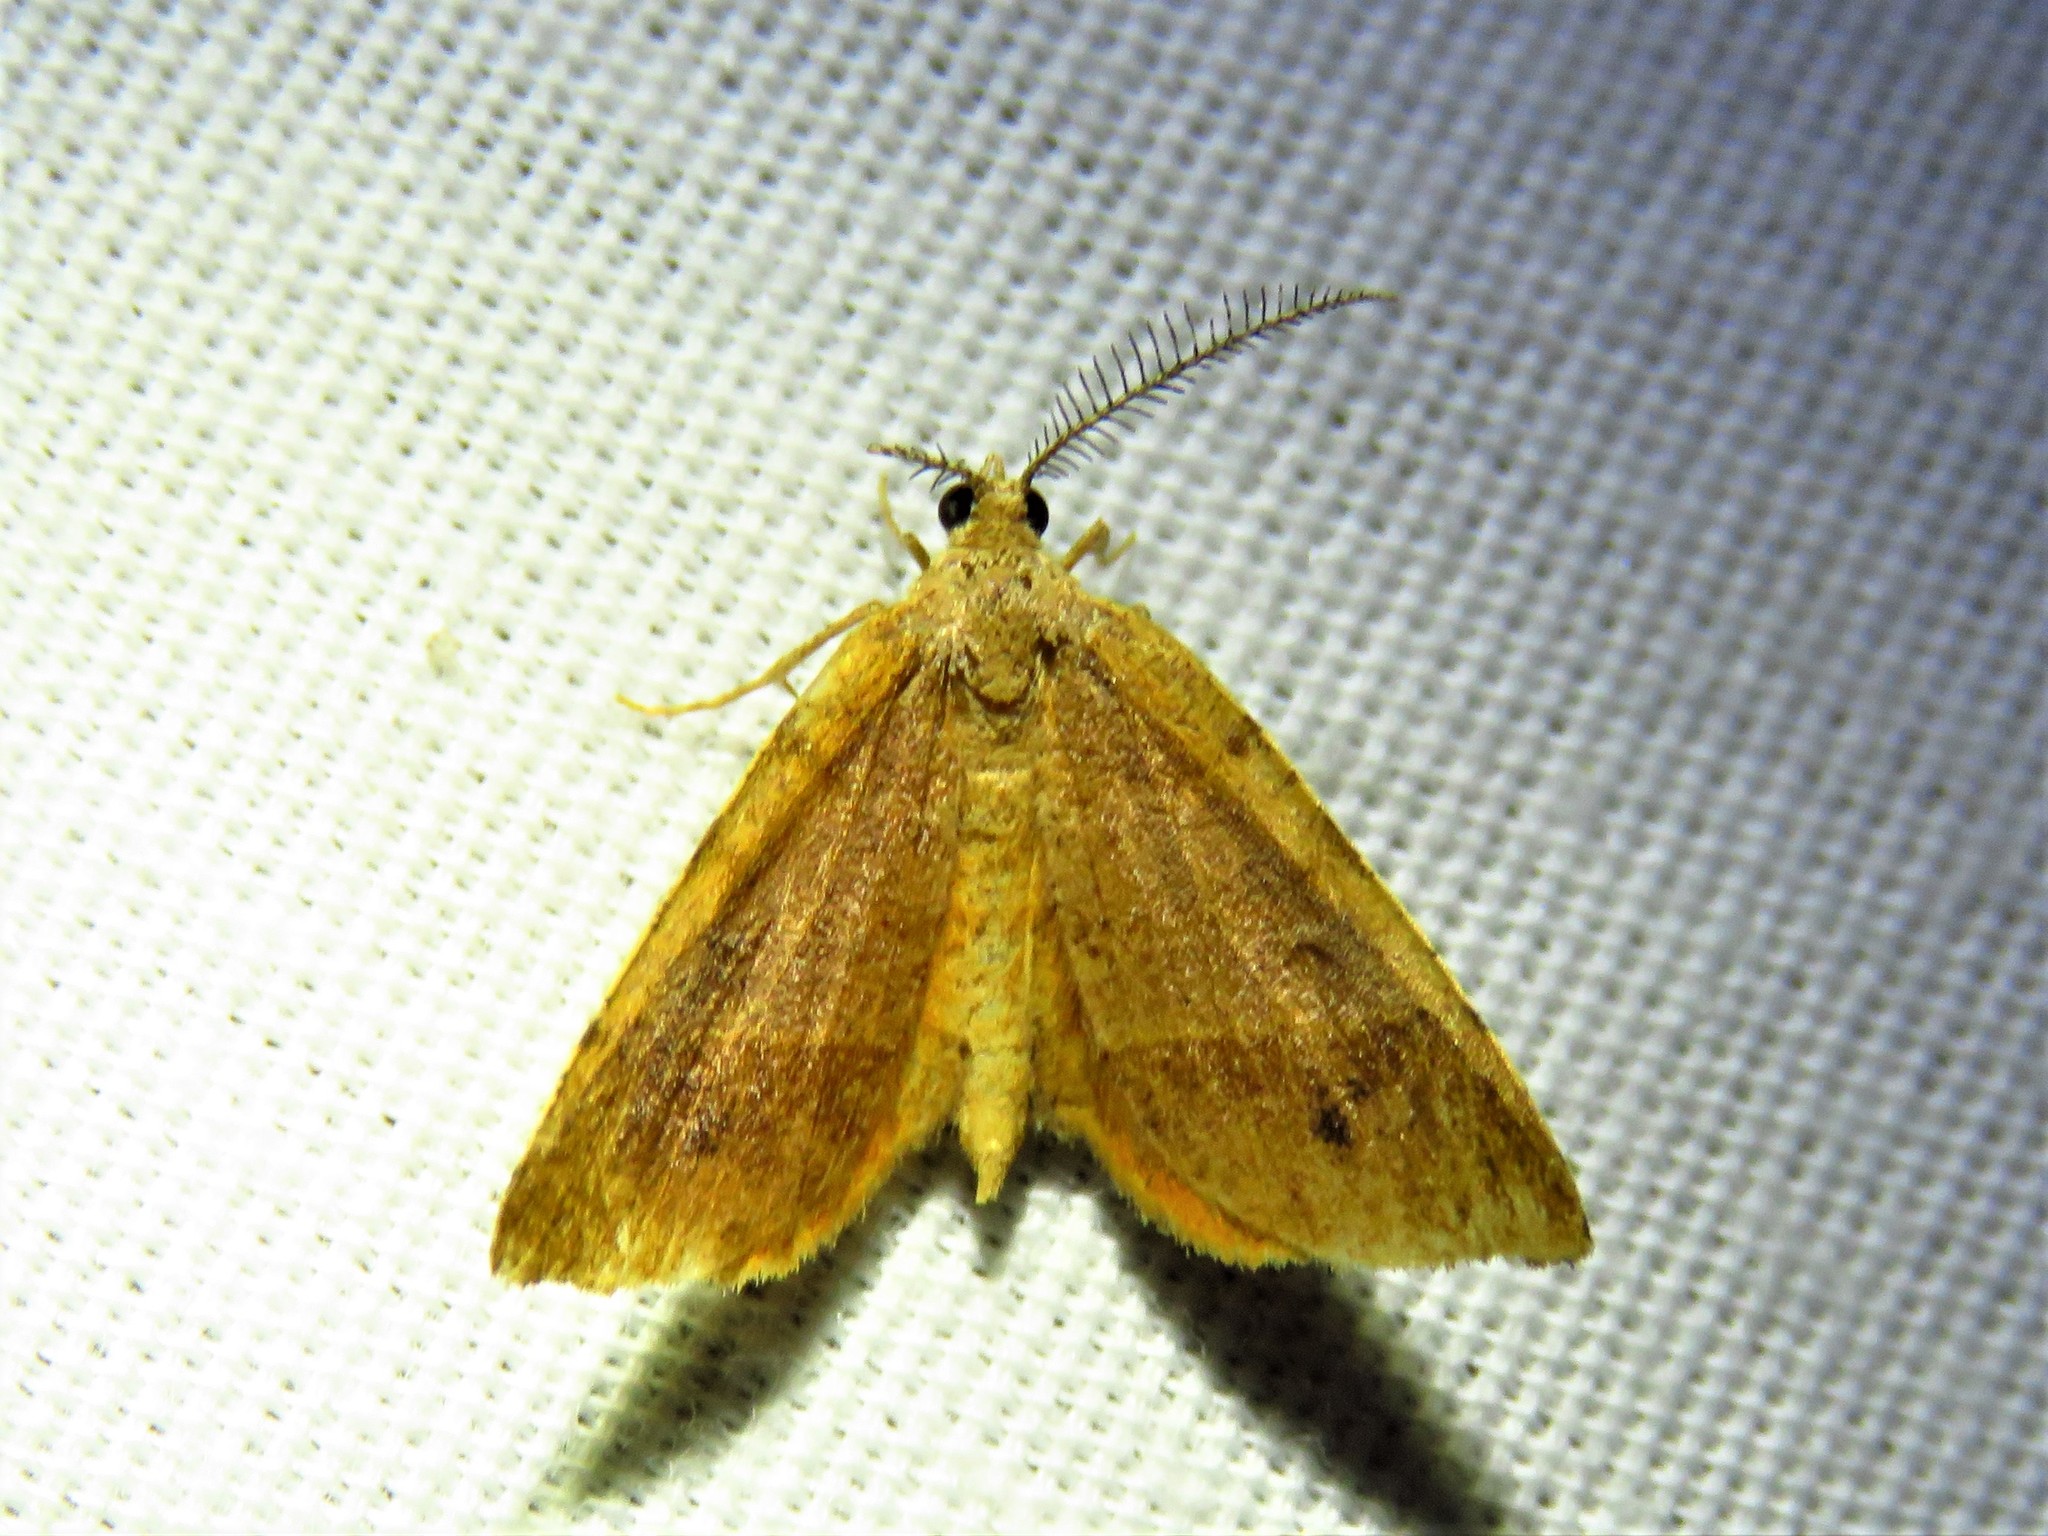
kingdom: Animalia
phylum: Arthropoda
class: Insecta
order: Lepidoptera
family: Geometridae
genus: Mellilla
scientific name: Mellilla xanthometata
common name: Orange wing moth
